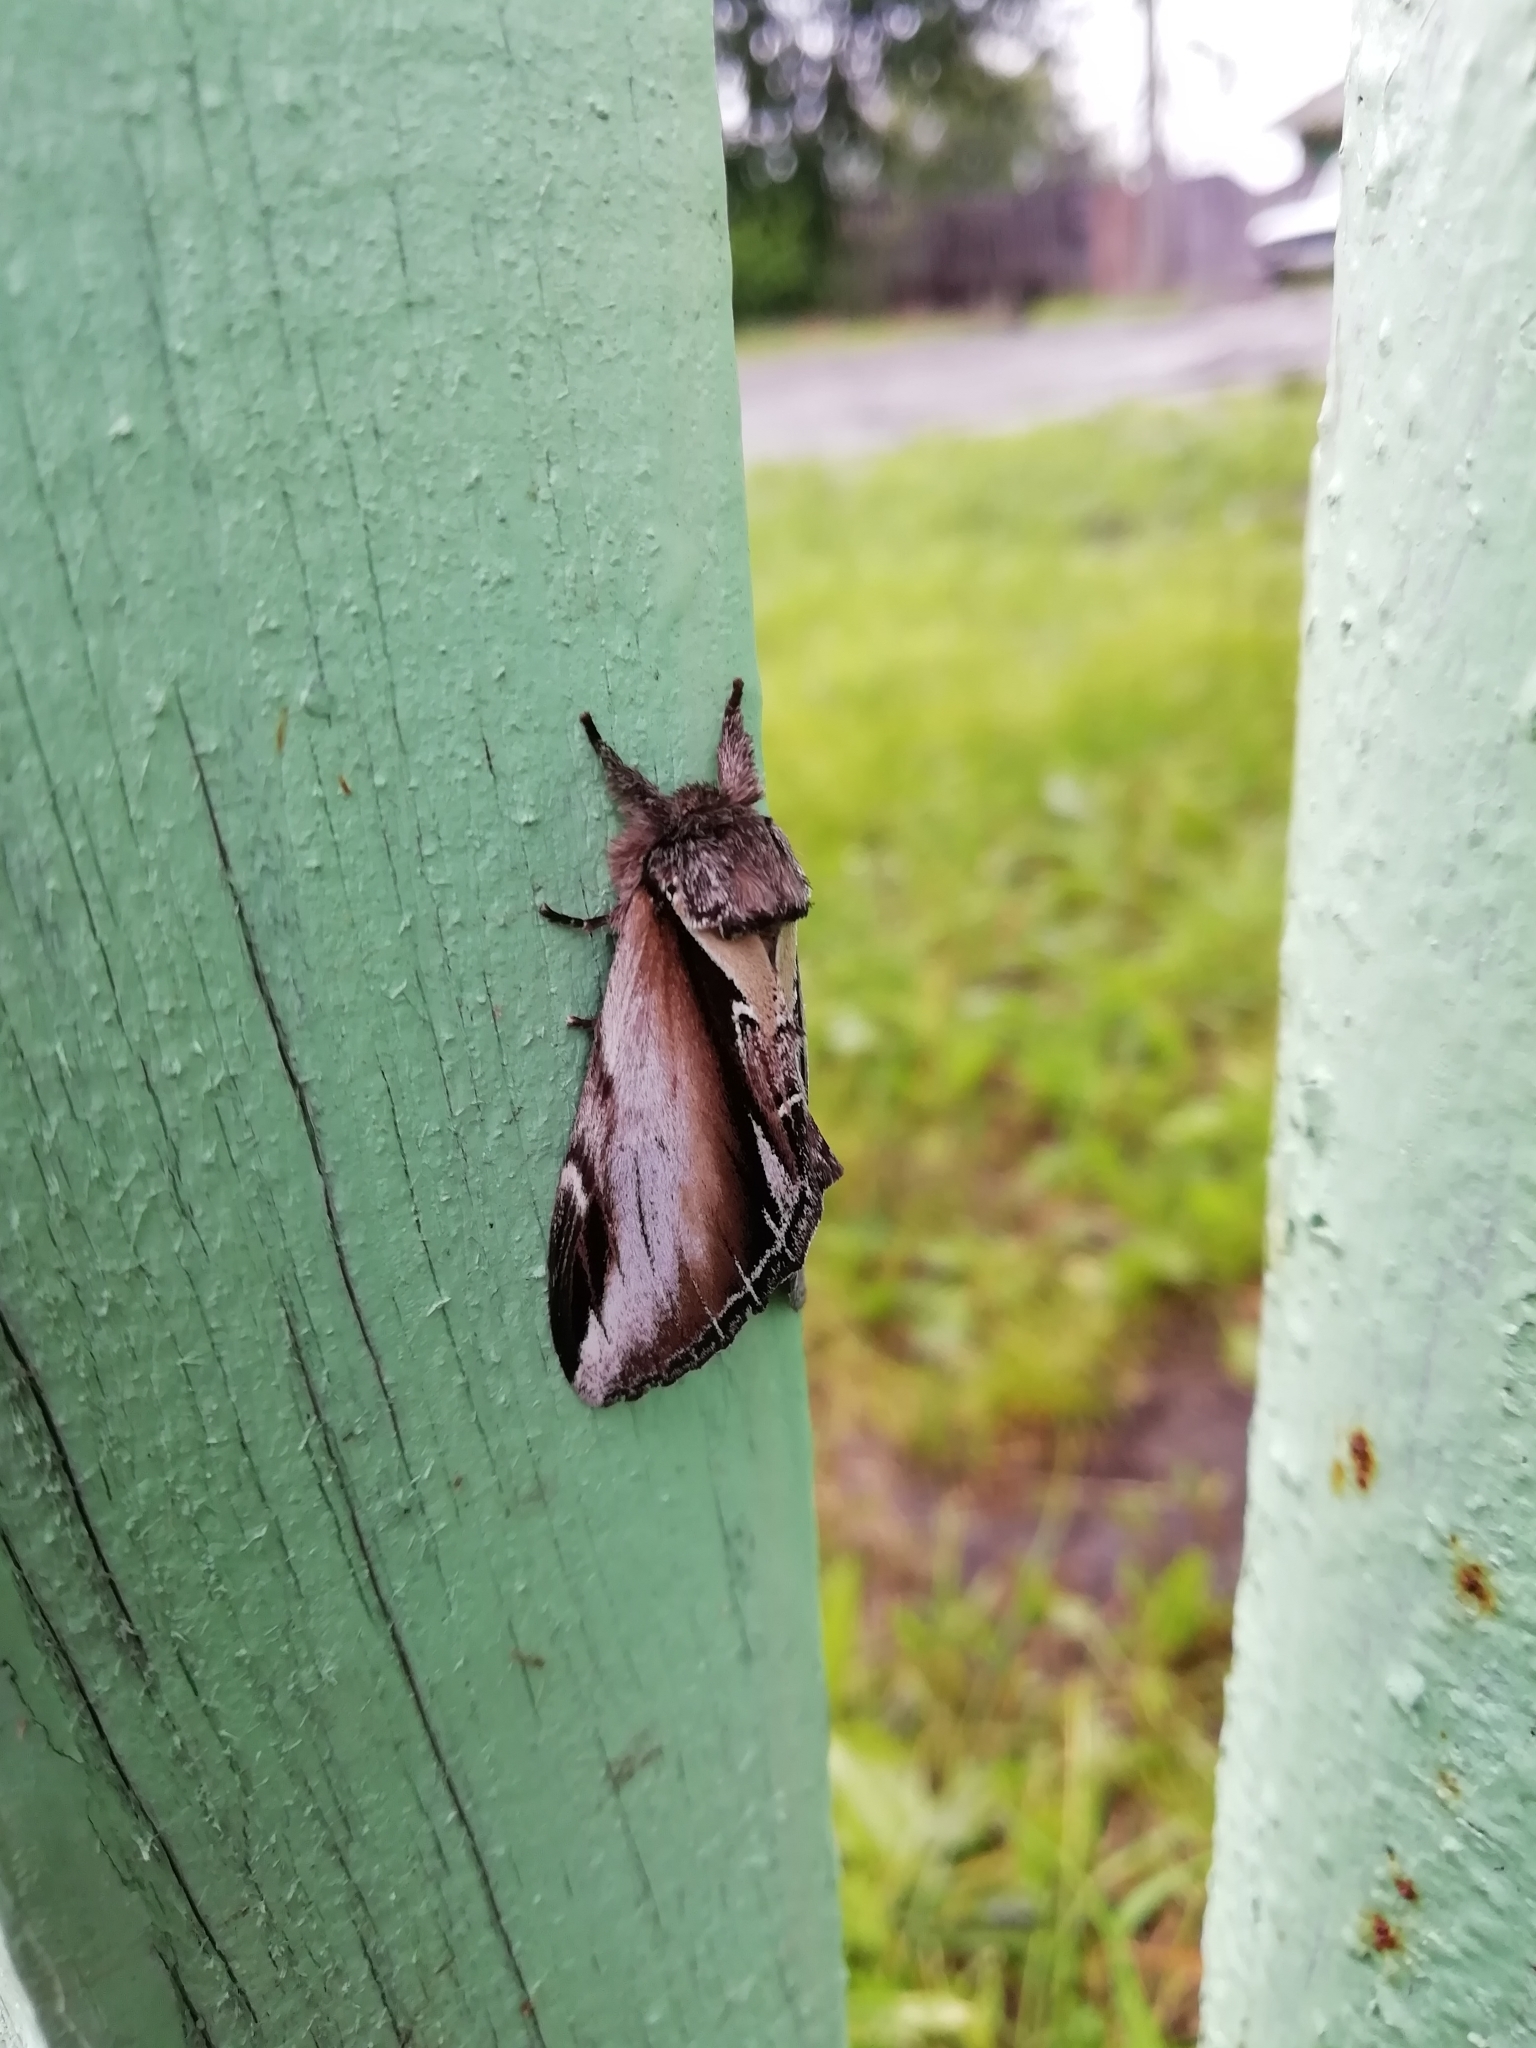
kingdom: Animalia
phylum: Arthropoda
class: Insecta
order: Lepidoptera
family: Notodontidae
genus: Pheosia
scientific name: Pheosia gnoma
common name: Lesser swallow prominent
